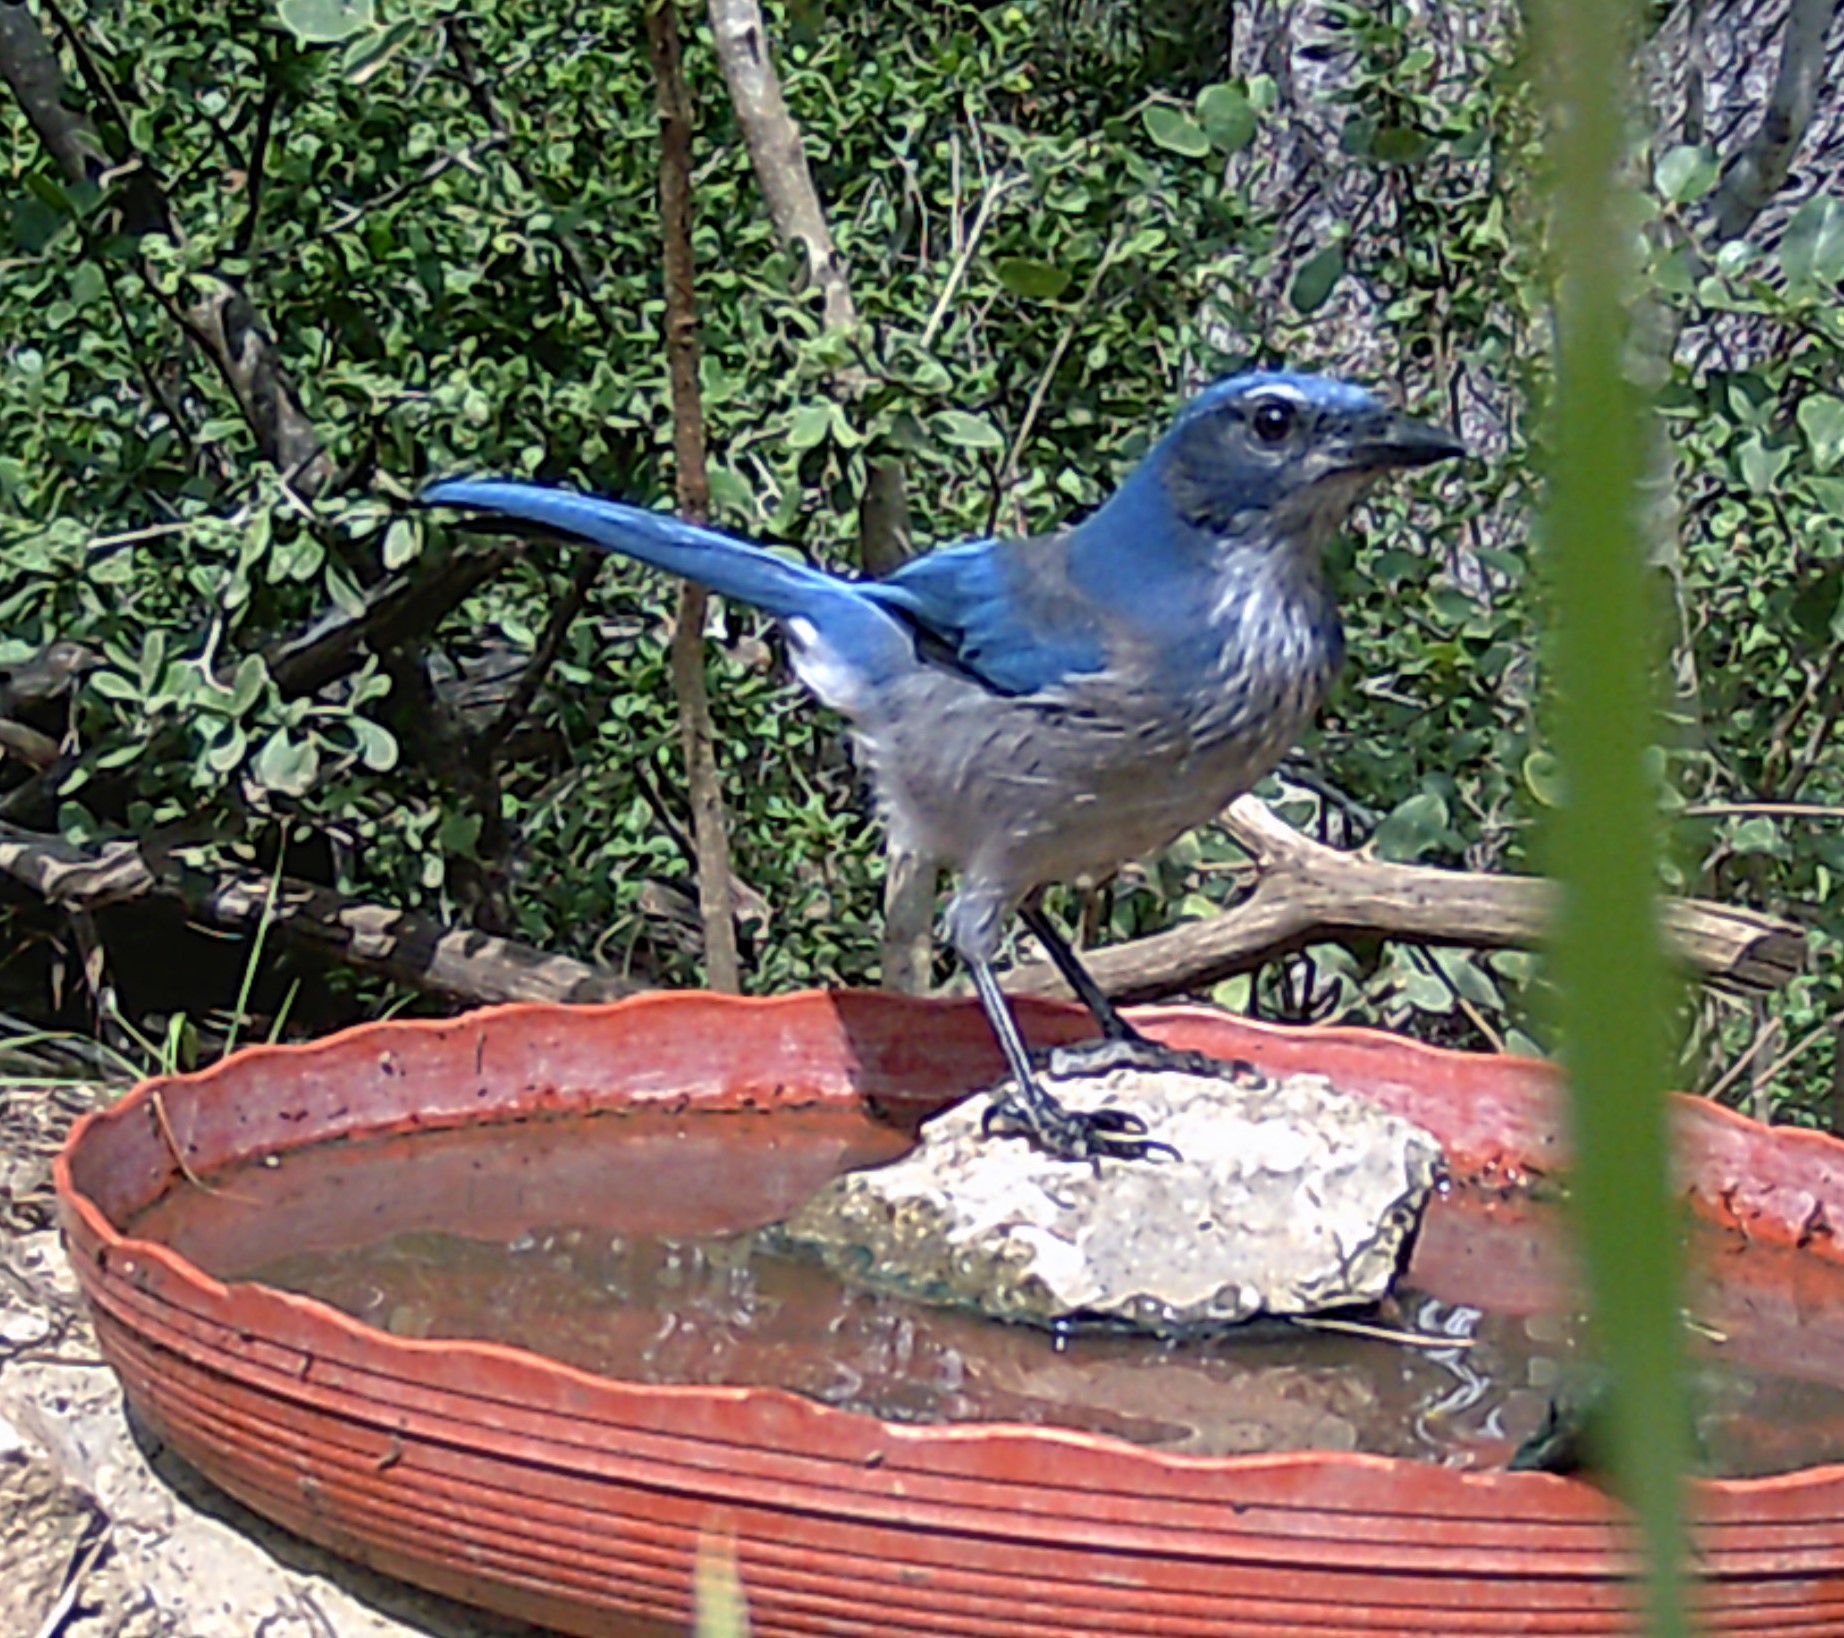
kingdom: Animalia
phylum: Chordata
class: Aves
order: Passeriformes
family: Corvidae
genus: Aphelocoma
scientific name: Aphelocoma woodhouseii
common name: Woodhouse's scrub-jay
